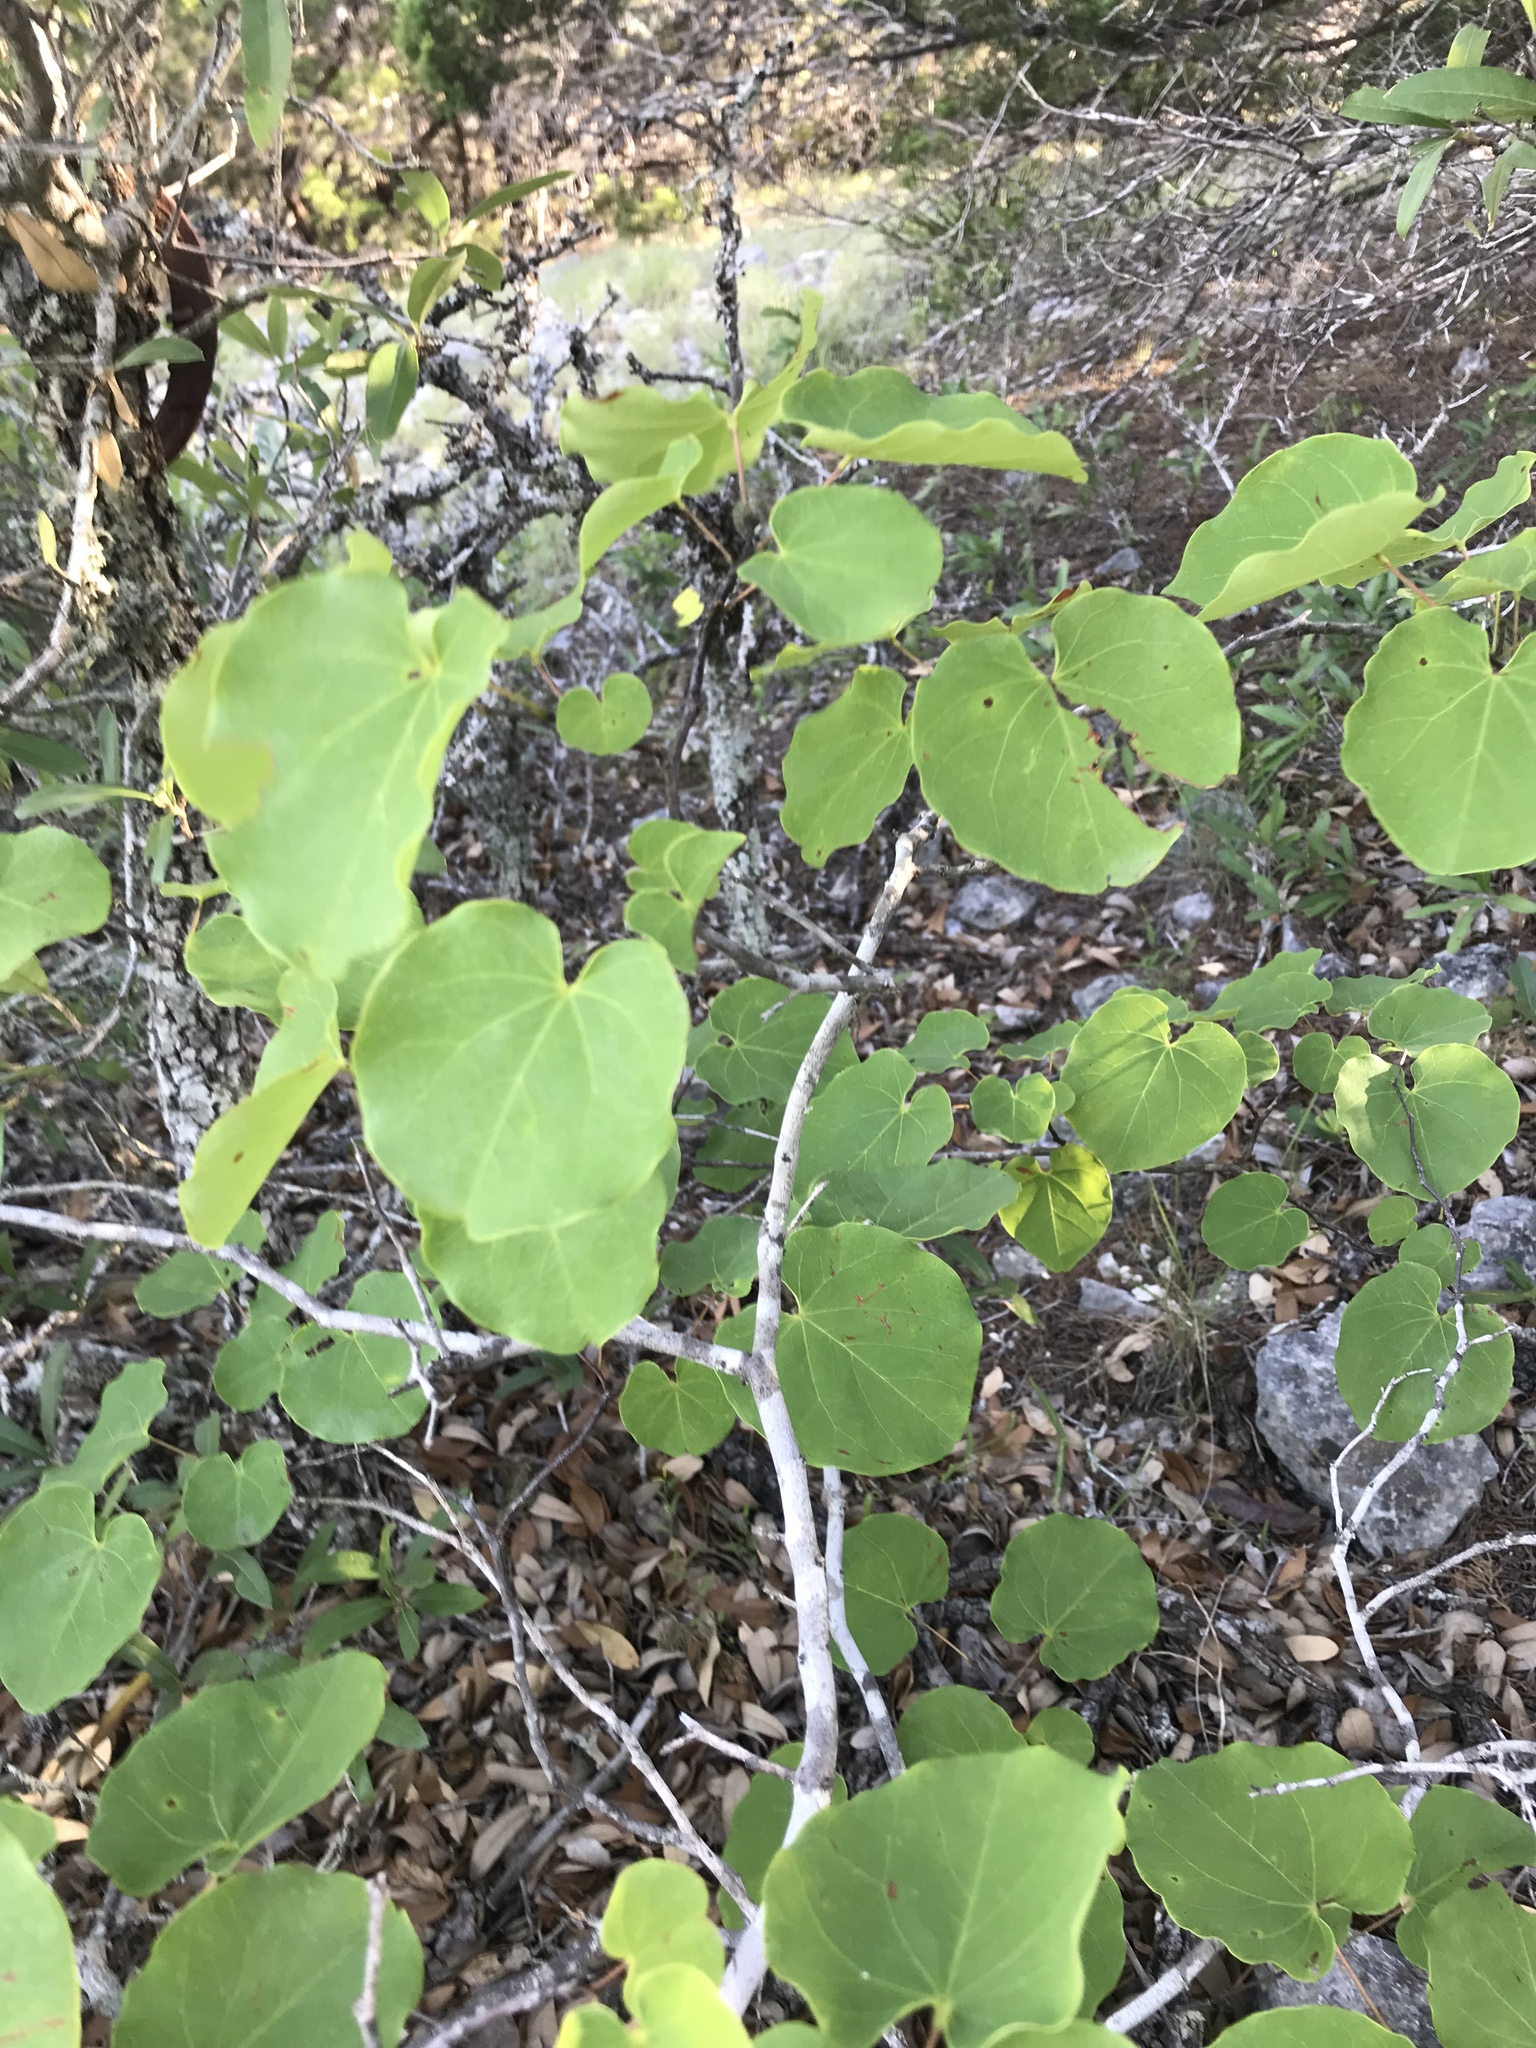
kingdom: Plantae
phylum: Tracheophyta
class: Magnoliopsida
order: Fabales
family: Fabaceae
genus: Cercis
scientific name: Cercis canadensis
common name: Eastern redbud
